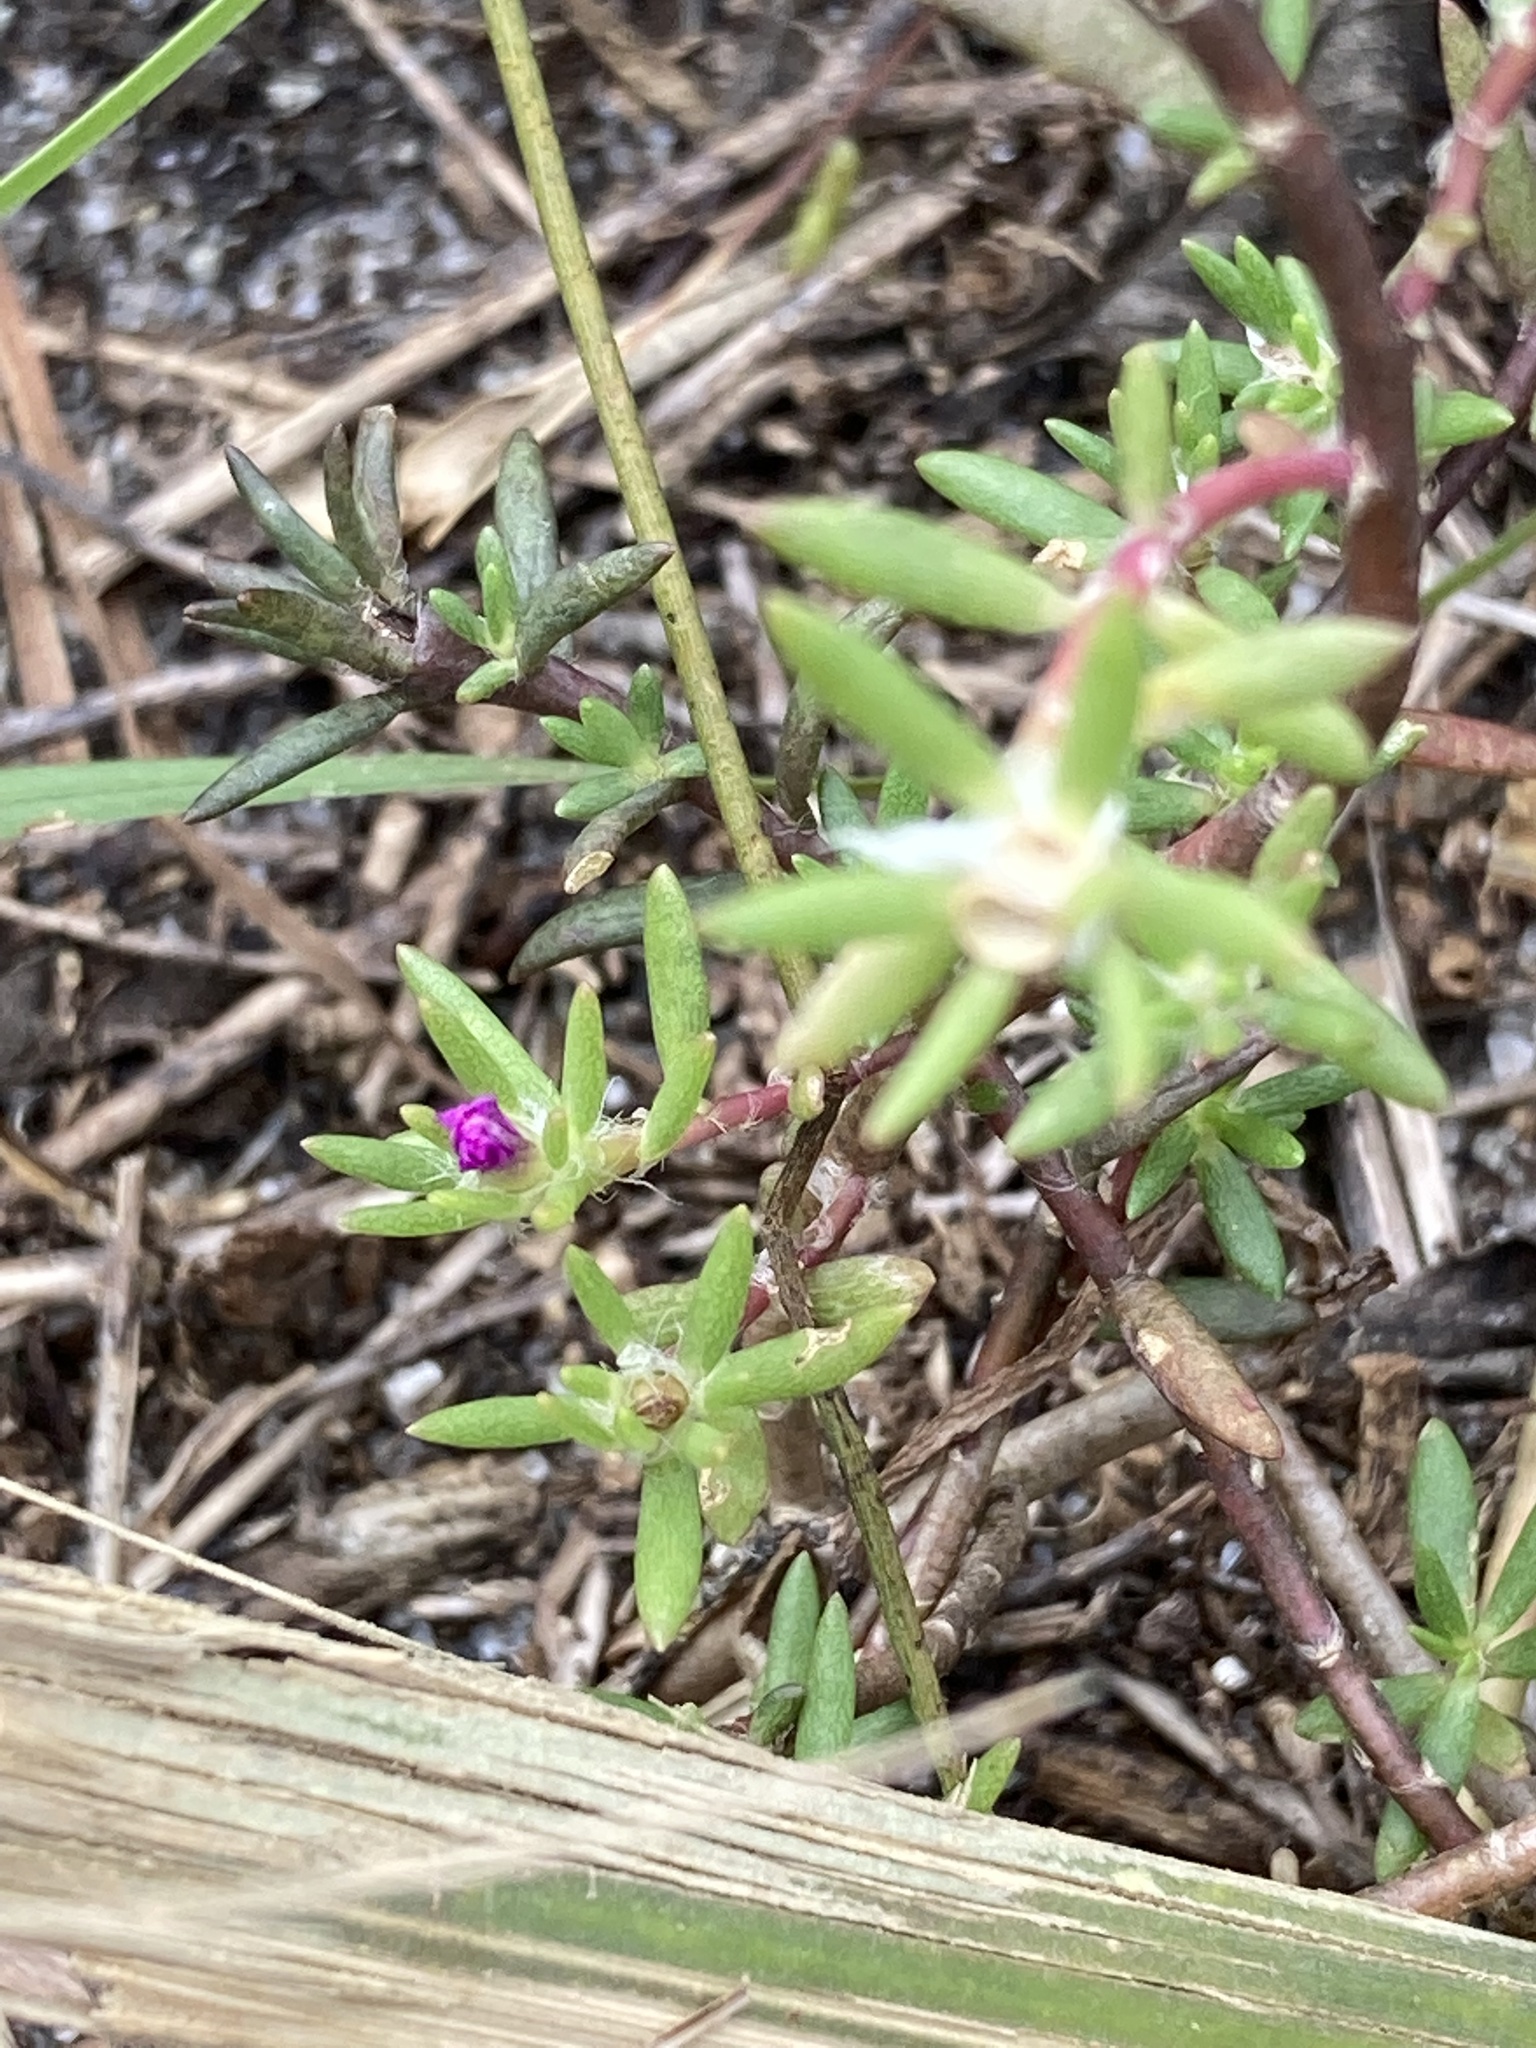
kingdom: Plantae
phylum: Tracheophyta
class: Magnoliopsida
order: Caryophyllales
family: Portulacaceae
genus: Portulaca
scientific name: Portulaca pilosa
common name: Kiss me quick
